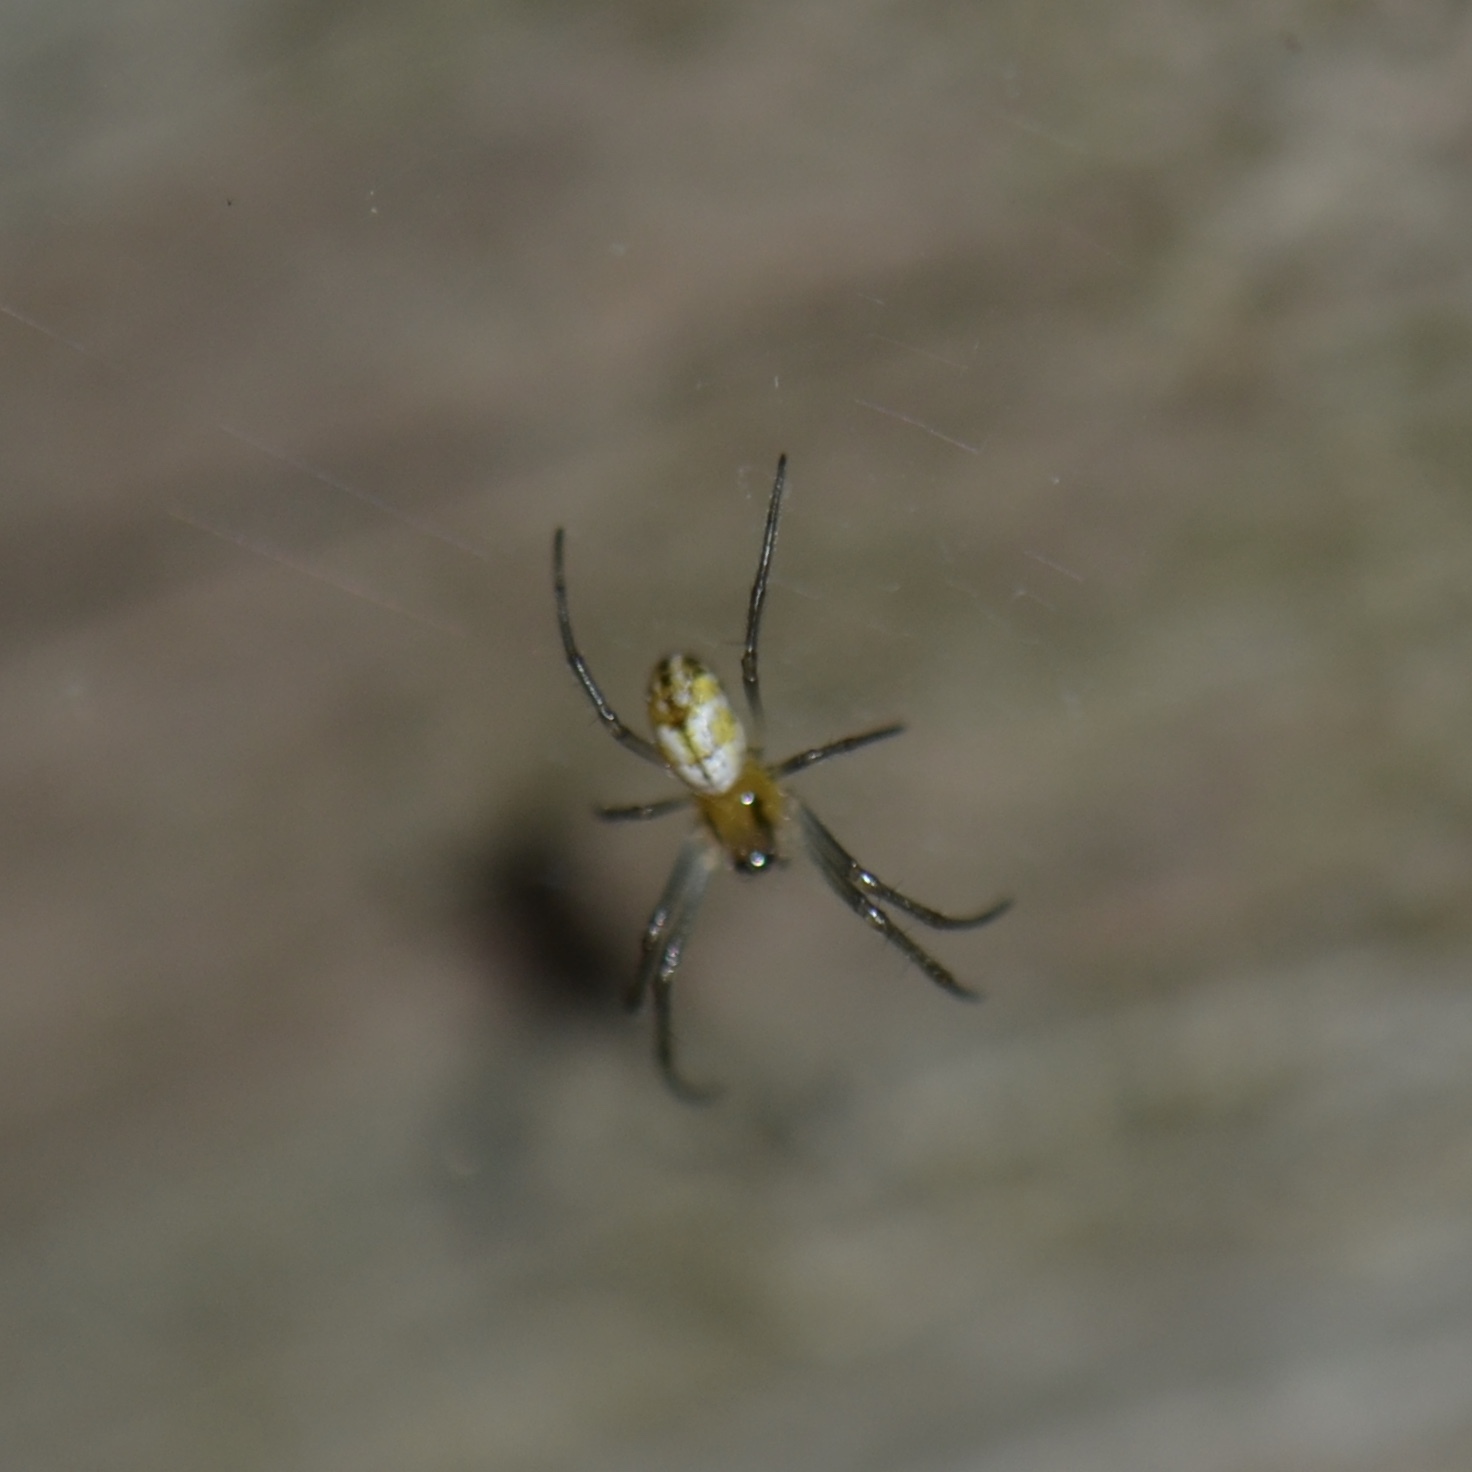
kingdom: Animalia
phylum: Arthropoda
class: Arachnida
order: Araneae
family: Araneidae
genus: Trichonephila
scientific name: Trichonephila clavipes
